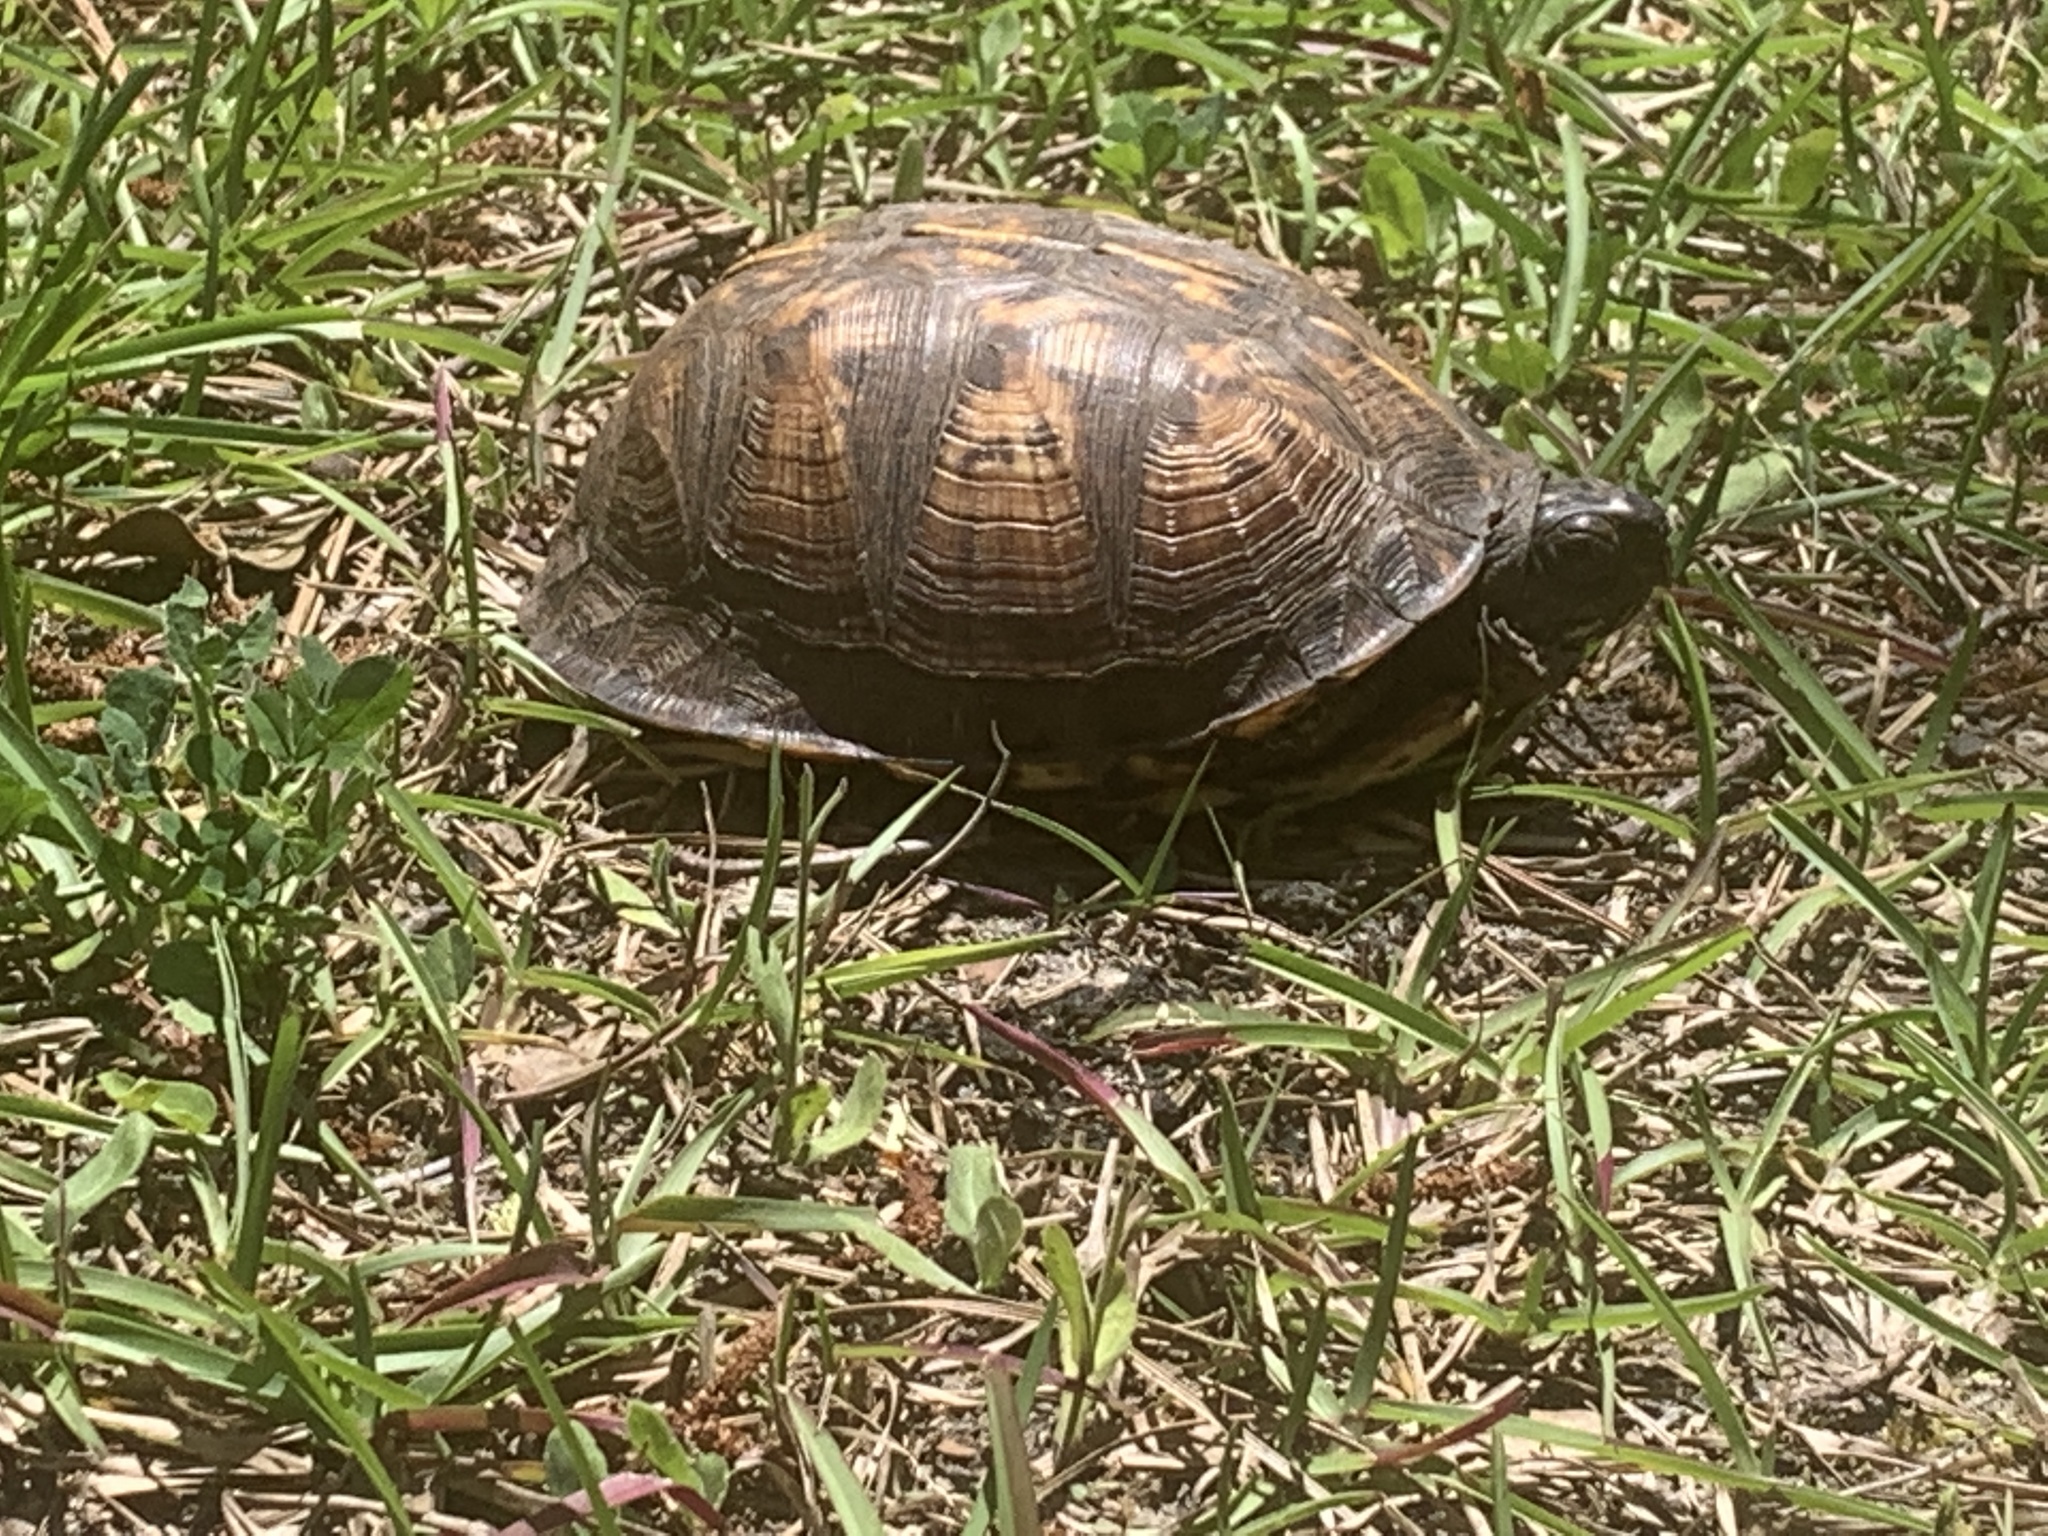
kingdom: Animalia
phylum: Chordata
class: Testudines
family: Emydidae
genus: Terrapene
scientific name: Terrapene carolina
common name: Common box turtle
